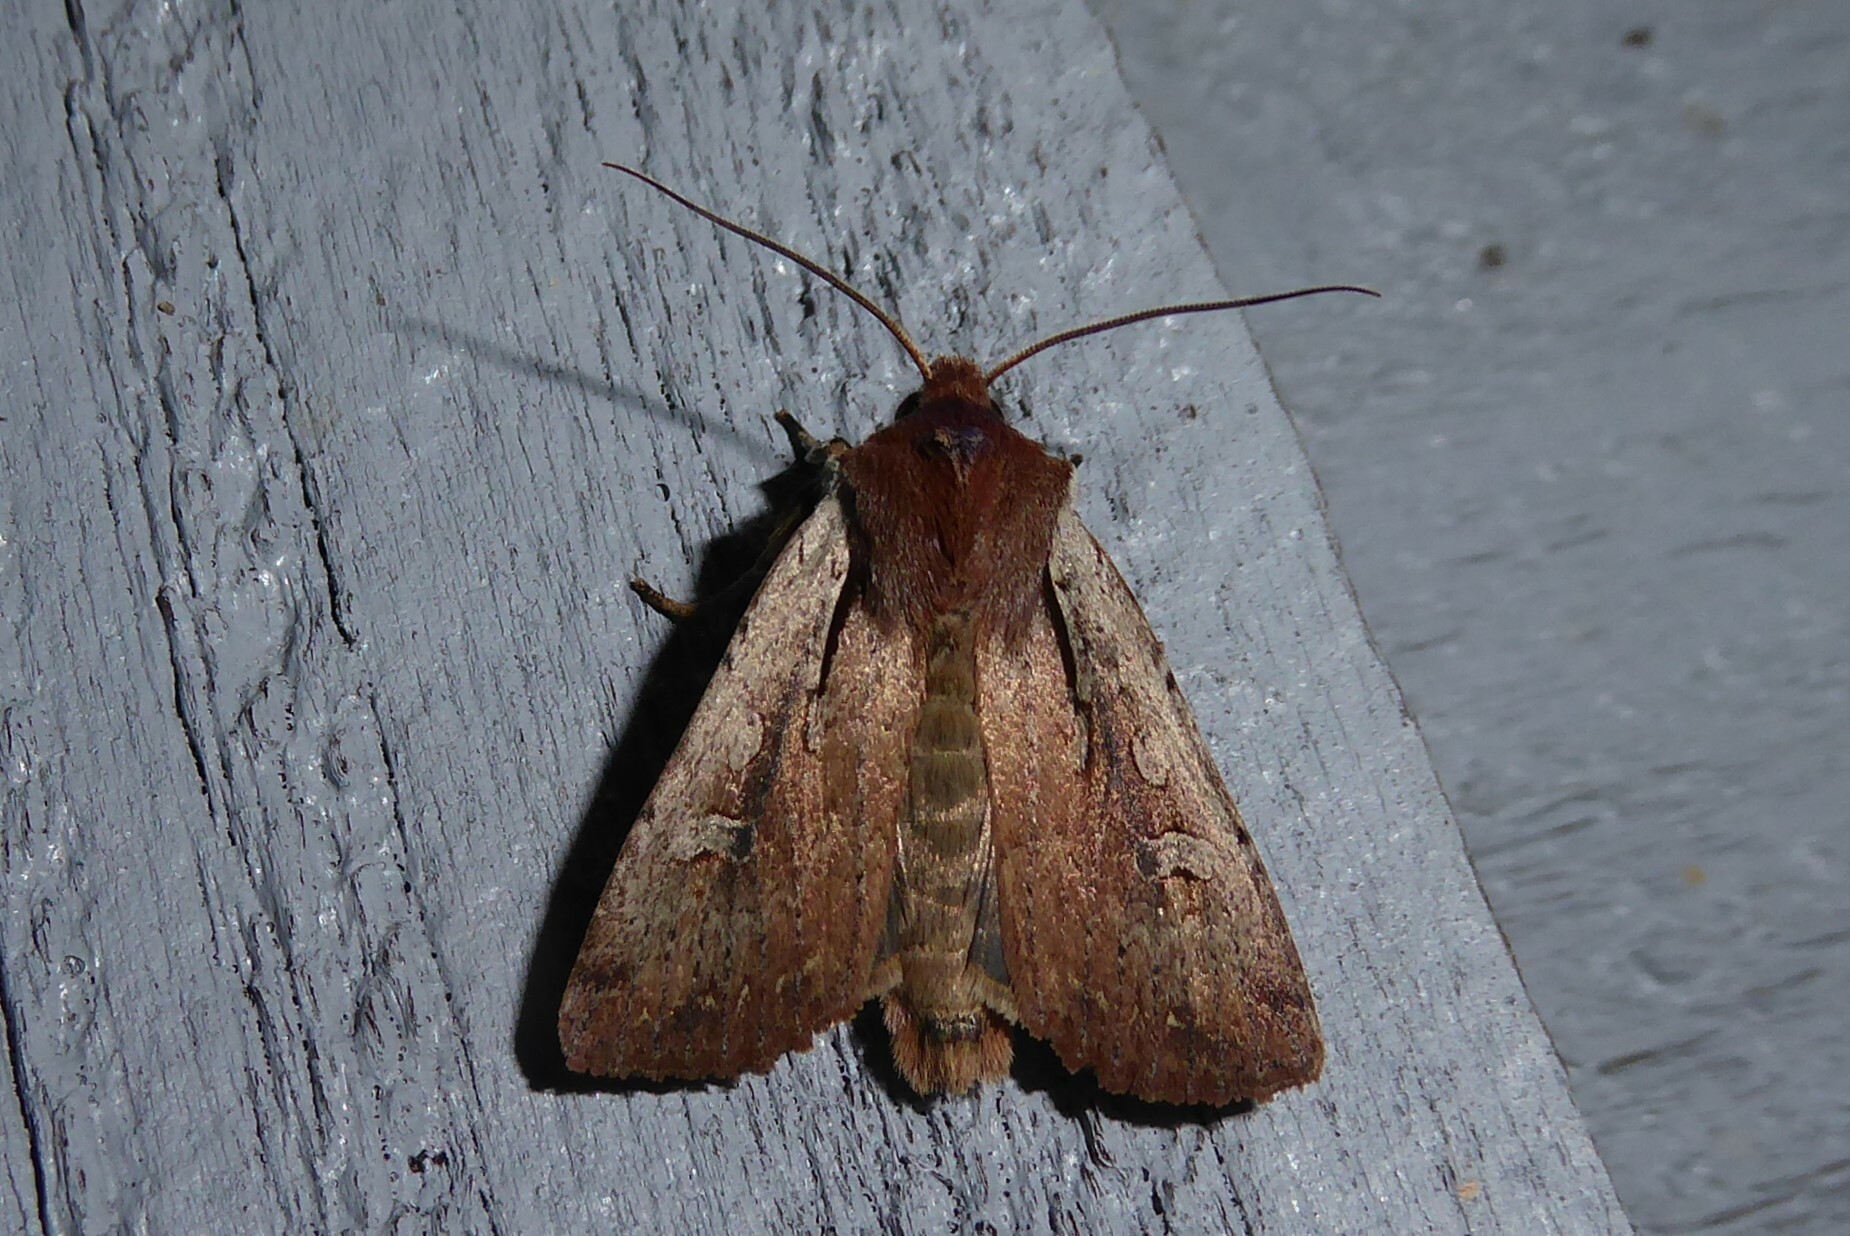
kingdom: Animalia
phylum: Arthropoda
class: Insecta
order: Lepidoptera
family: Noctuidae
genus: Ichneutica
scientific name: Ichneutica atristriga
